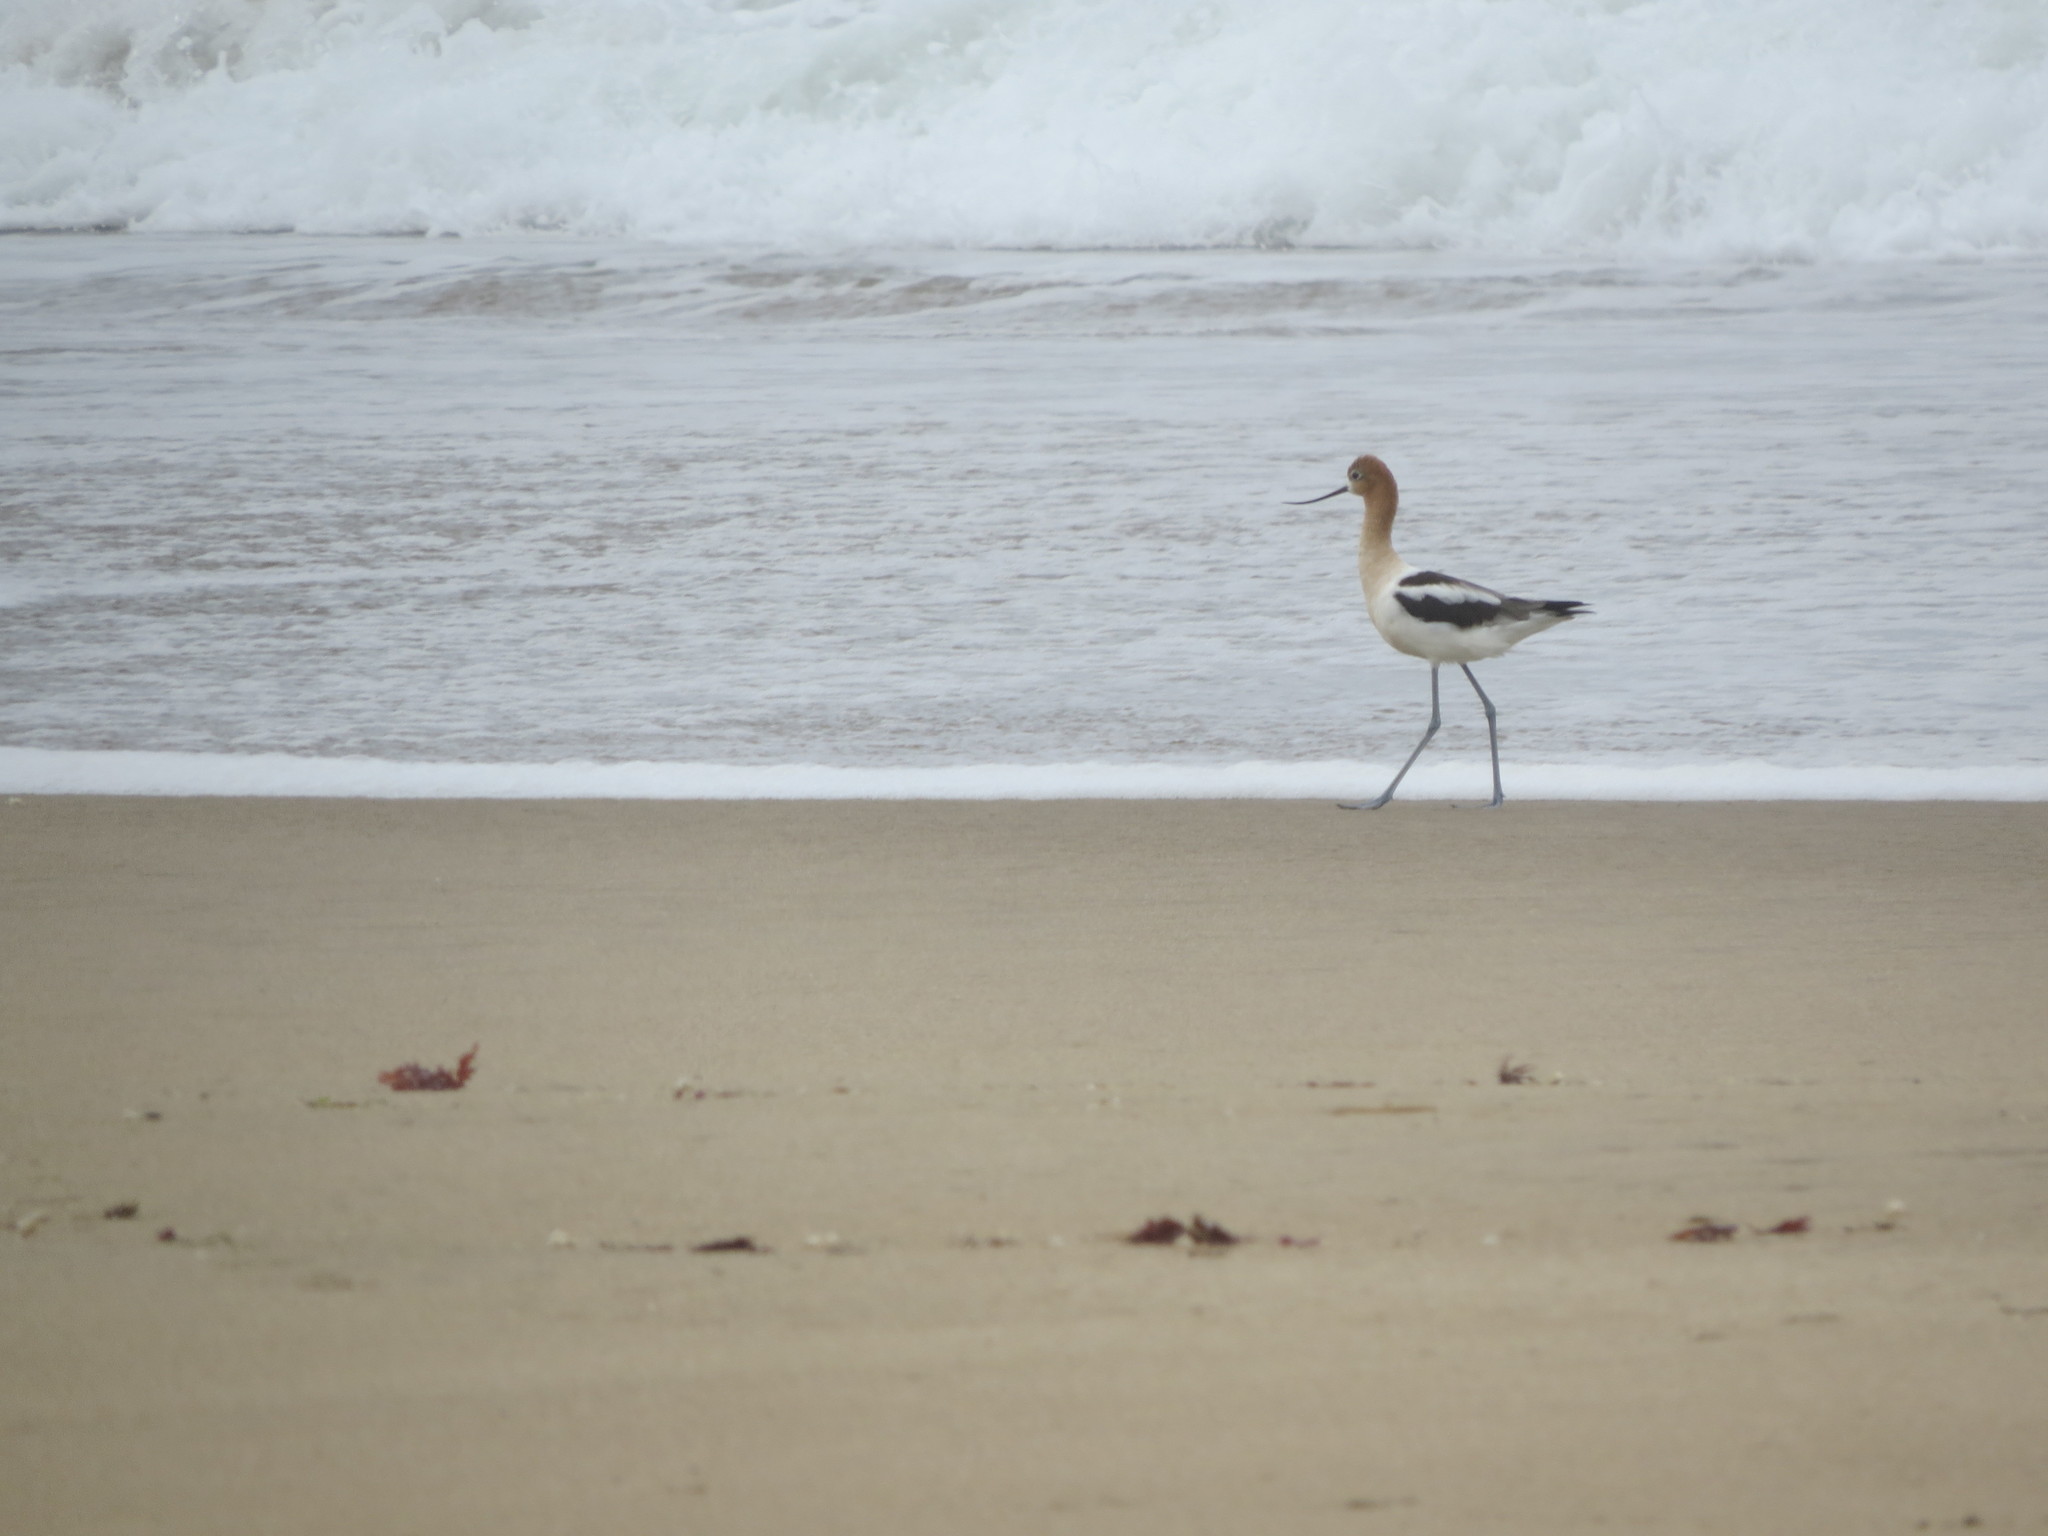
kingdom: Animalia
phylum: Chordata
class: Aves
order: Charadriiformes
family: Recurvirostridae
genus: Recurvirostra
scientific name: Recurvirostra americana
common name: American avocet
